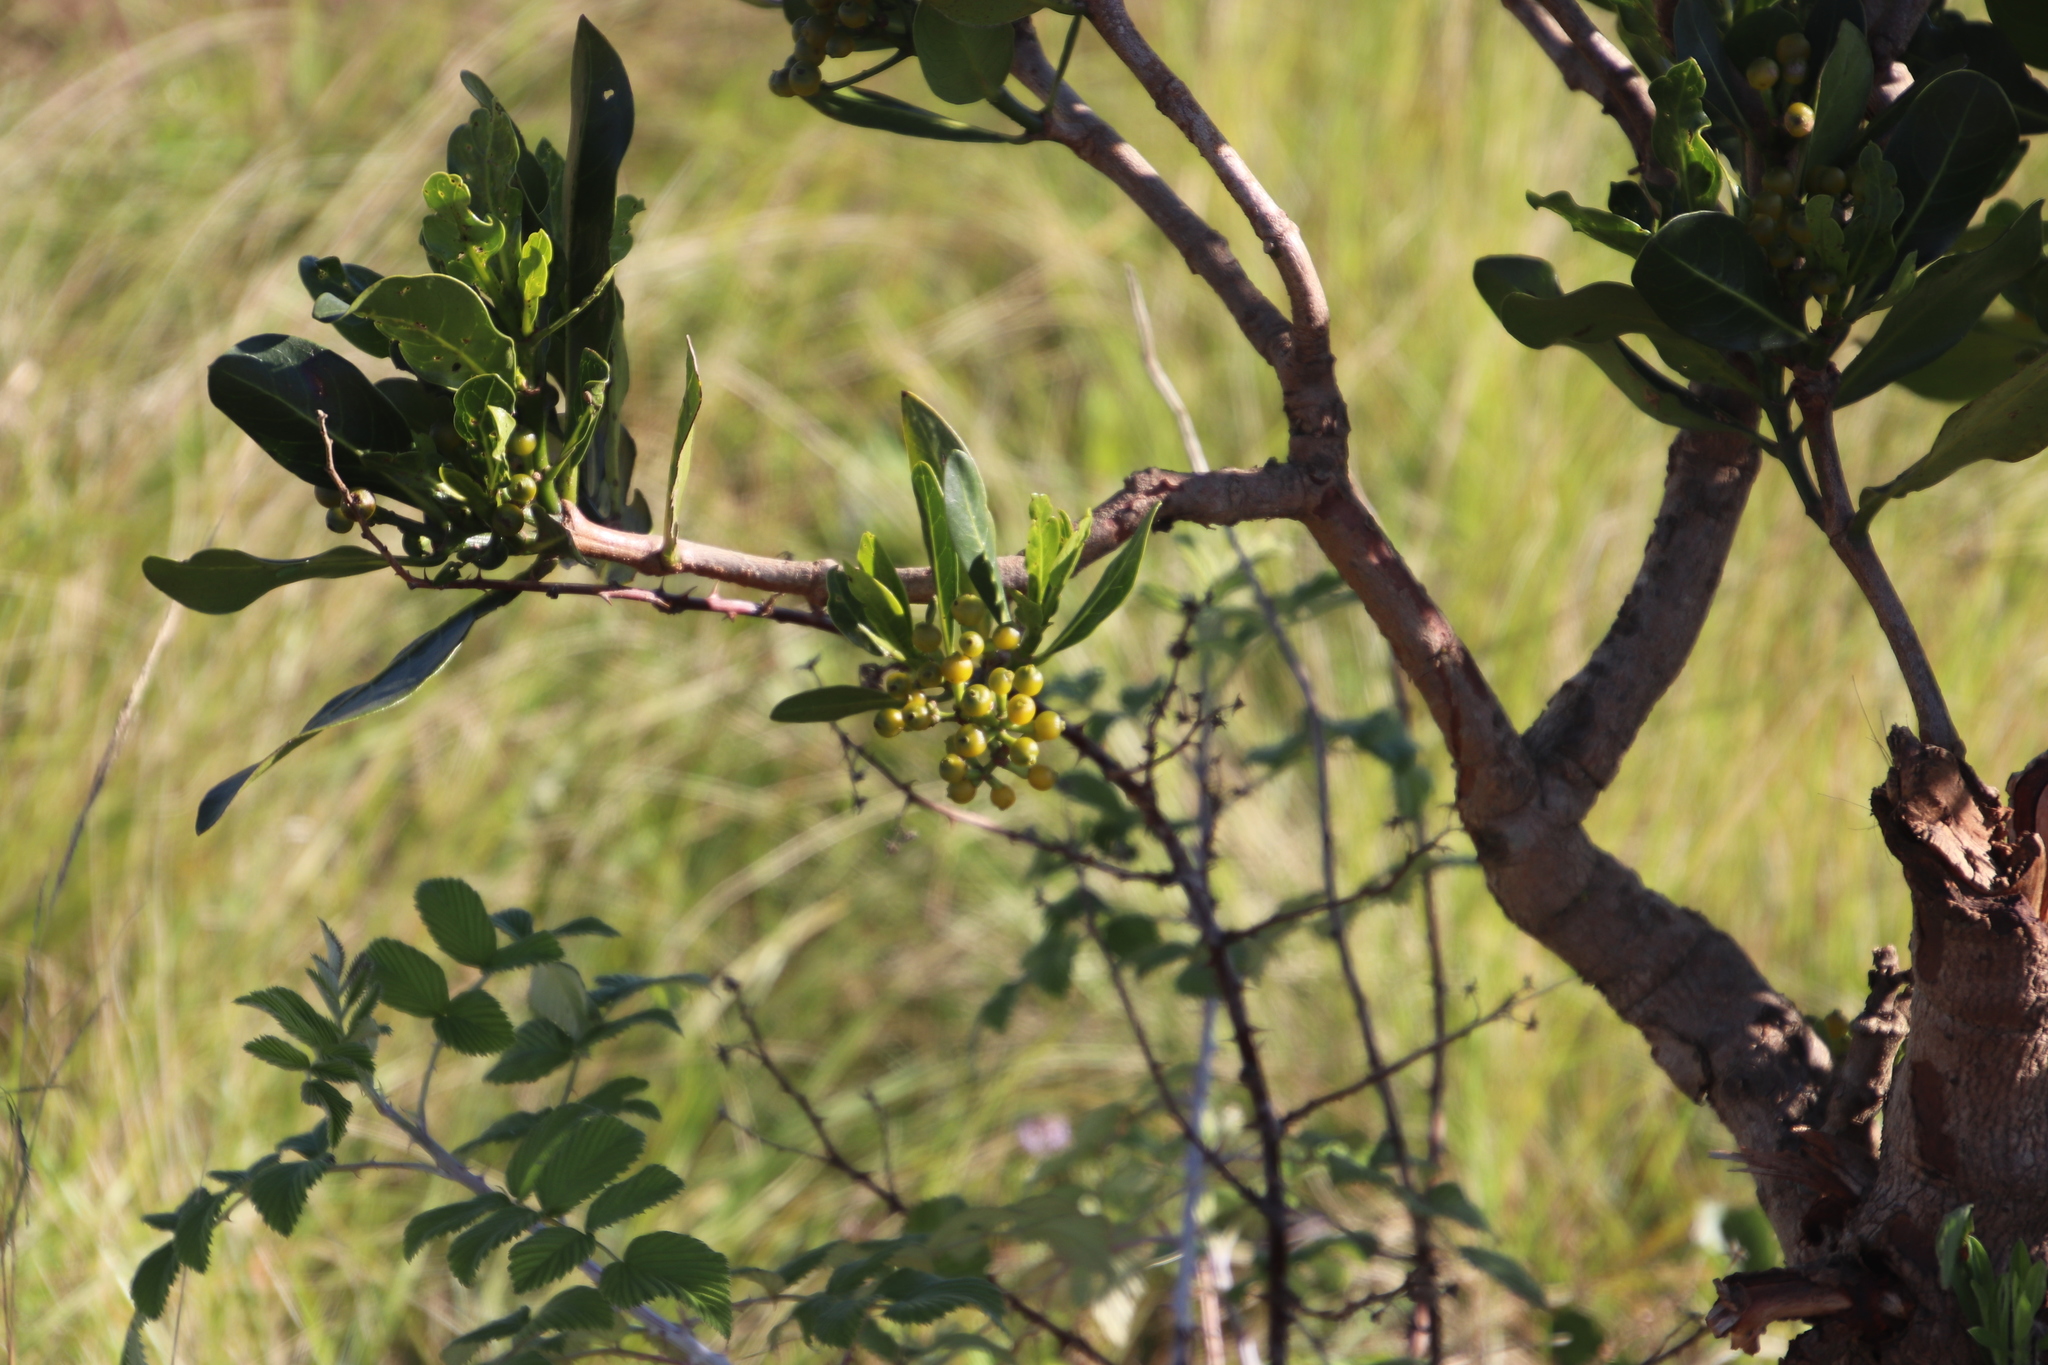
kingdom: Plantae
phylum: Tracheophyta
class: Magnoliopsida
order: Gentianales
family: Rubiaceae
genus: Psychotria
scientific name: Psychotria
